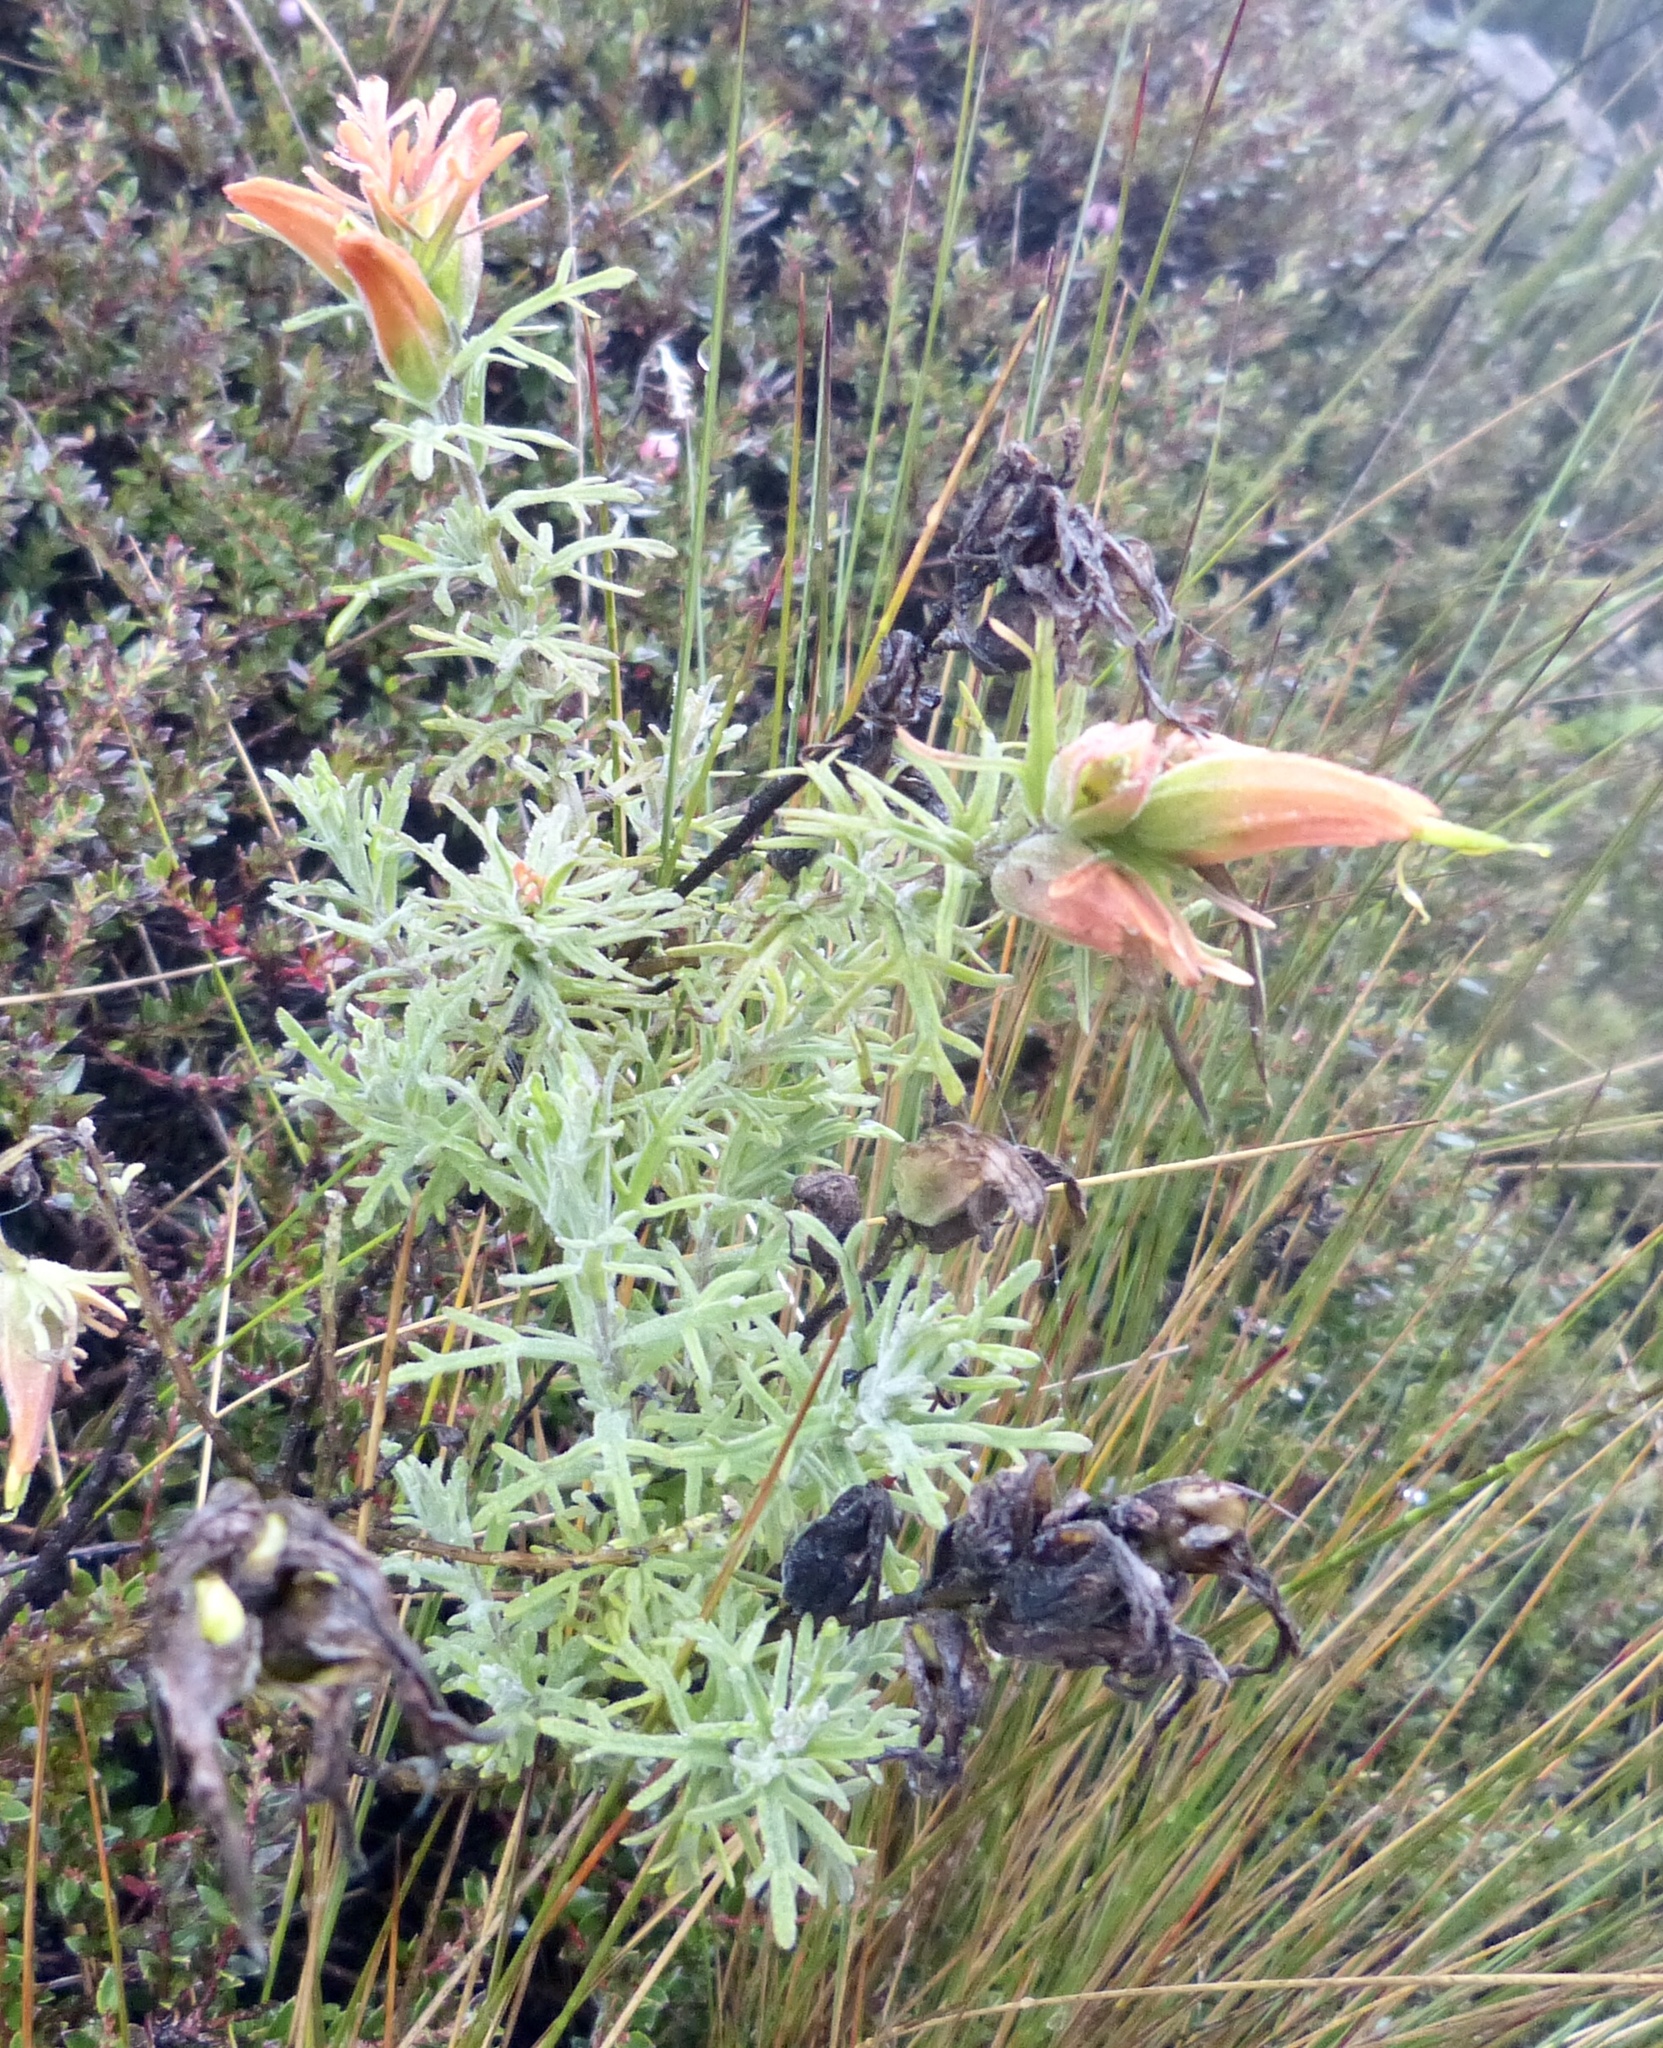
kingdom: Plantae
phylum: Tracheophyta
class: Magnoliopsida
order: Lamiales
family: Orobanchaceae
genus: Castilleja
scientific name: Castilleja fissifolia
